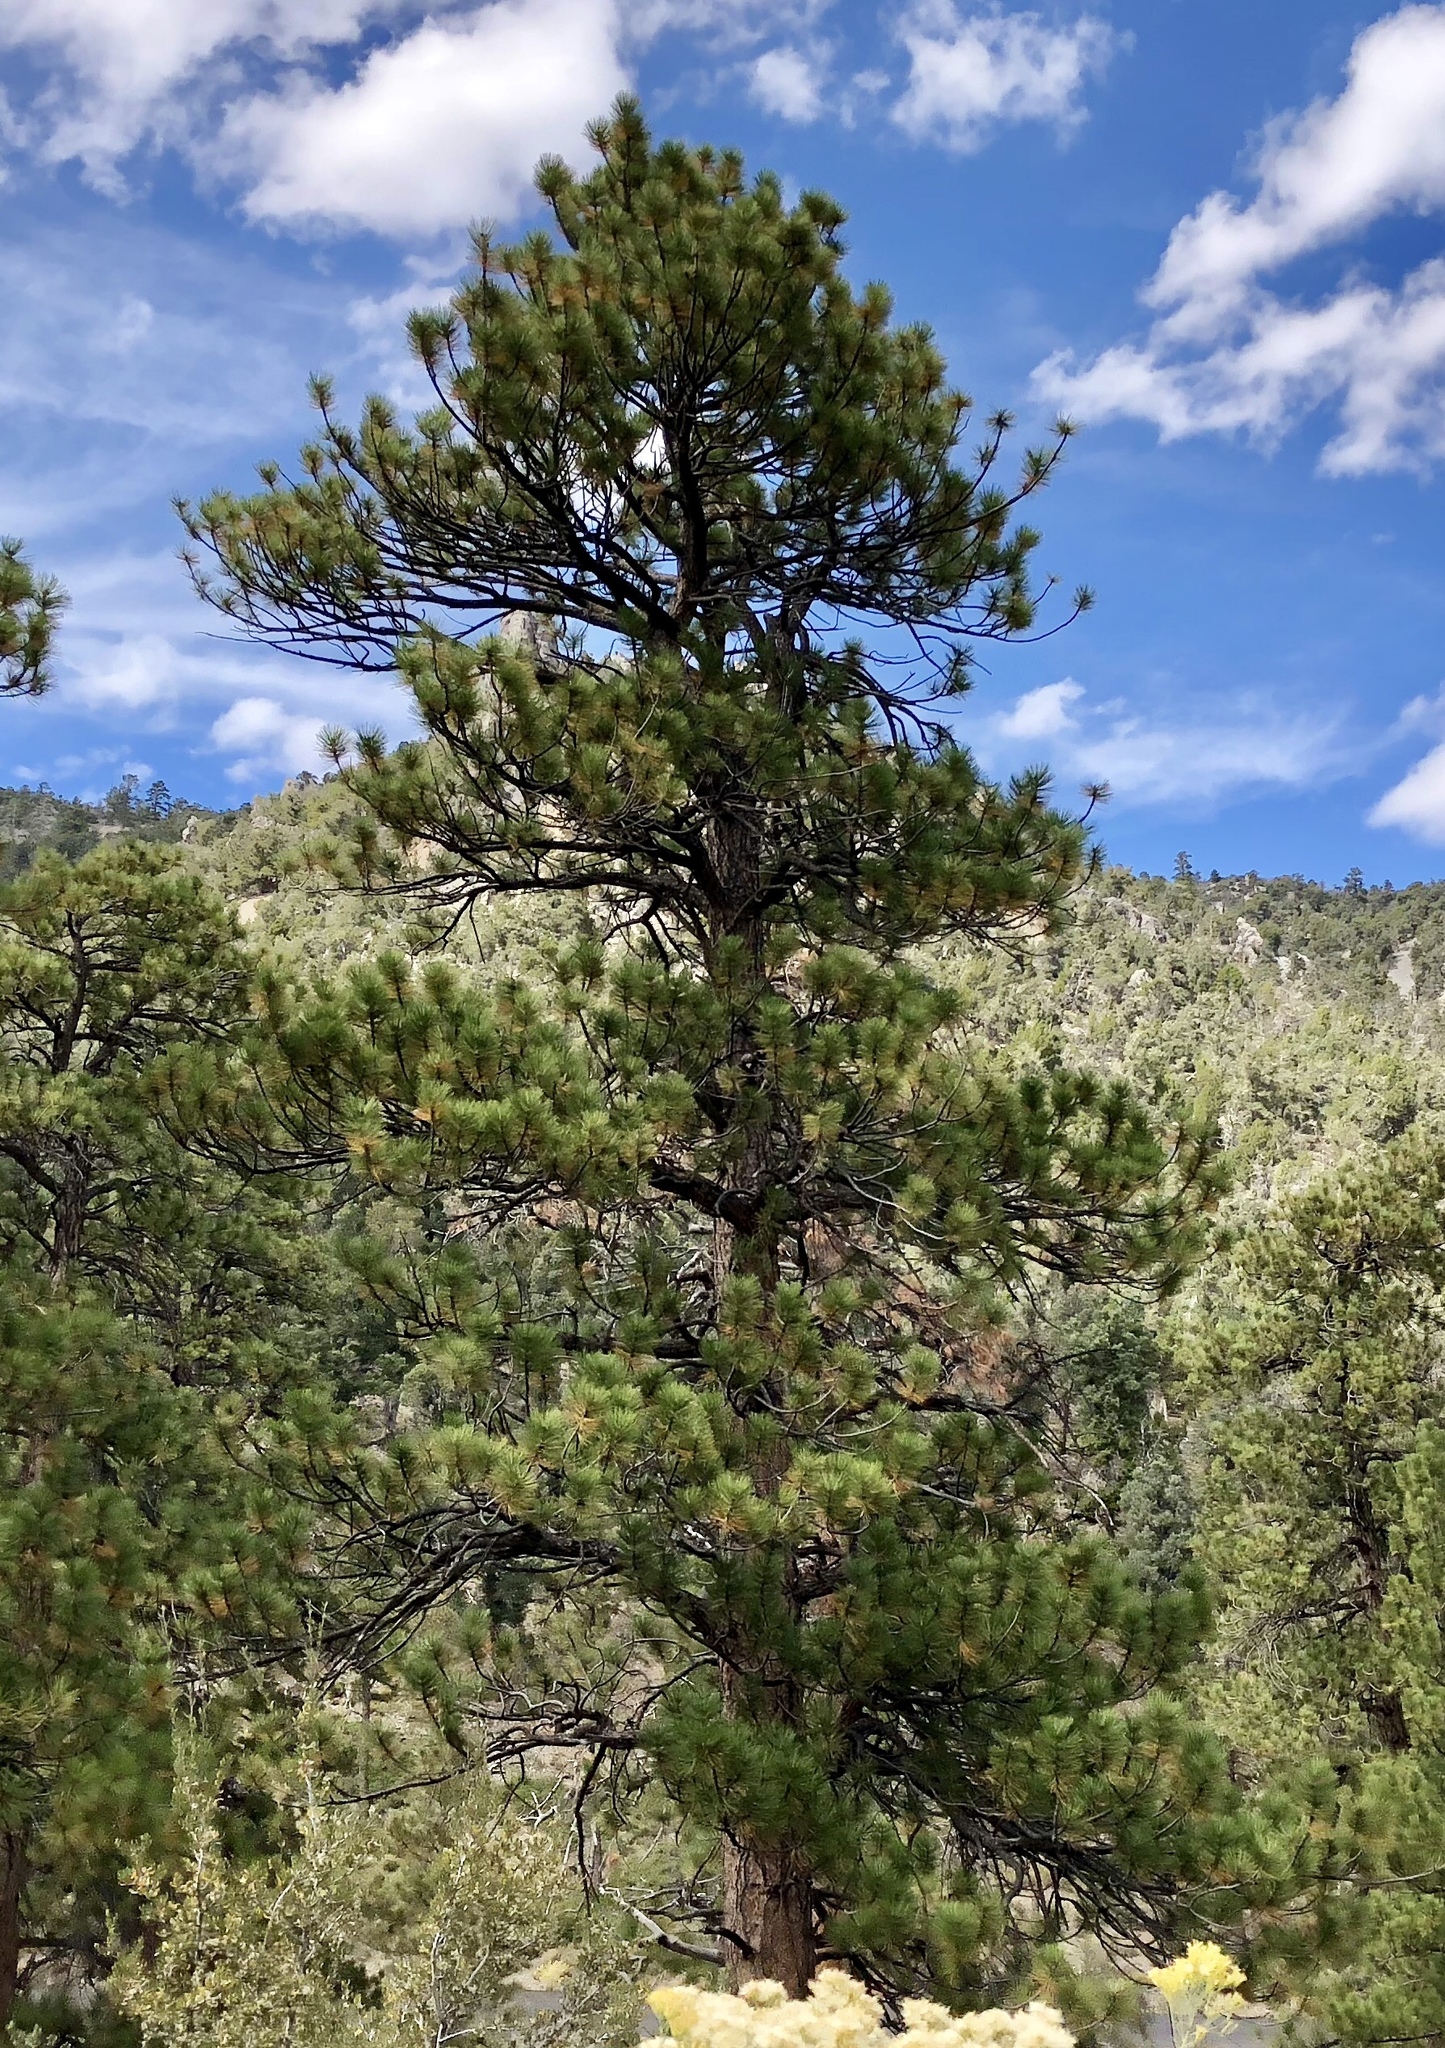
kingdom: Plantae
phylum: Tracheophyta
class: Pinopsida
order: Pinales
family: Pinaceae
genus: Pinus
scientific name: Pinus ponderosa
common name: Western yellow-pine
